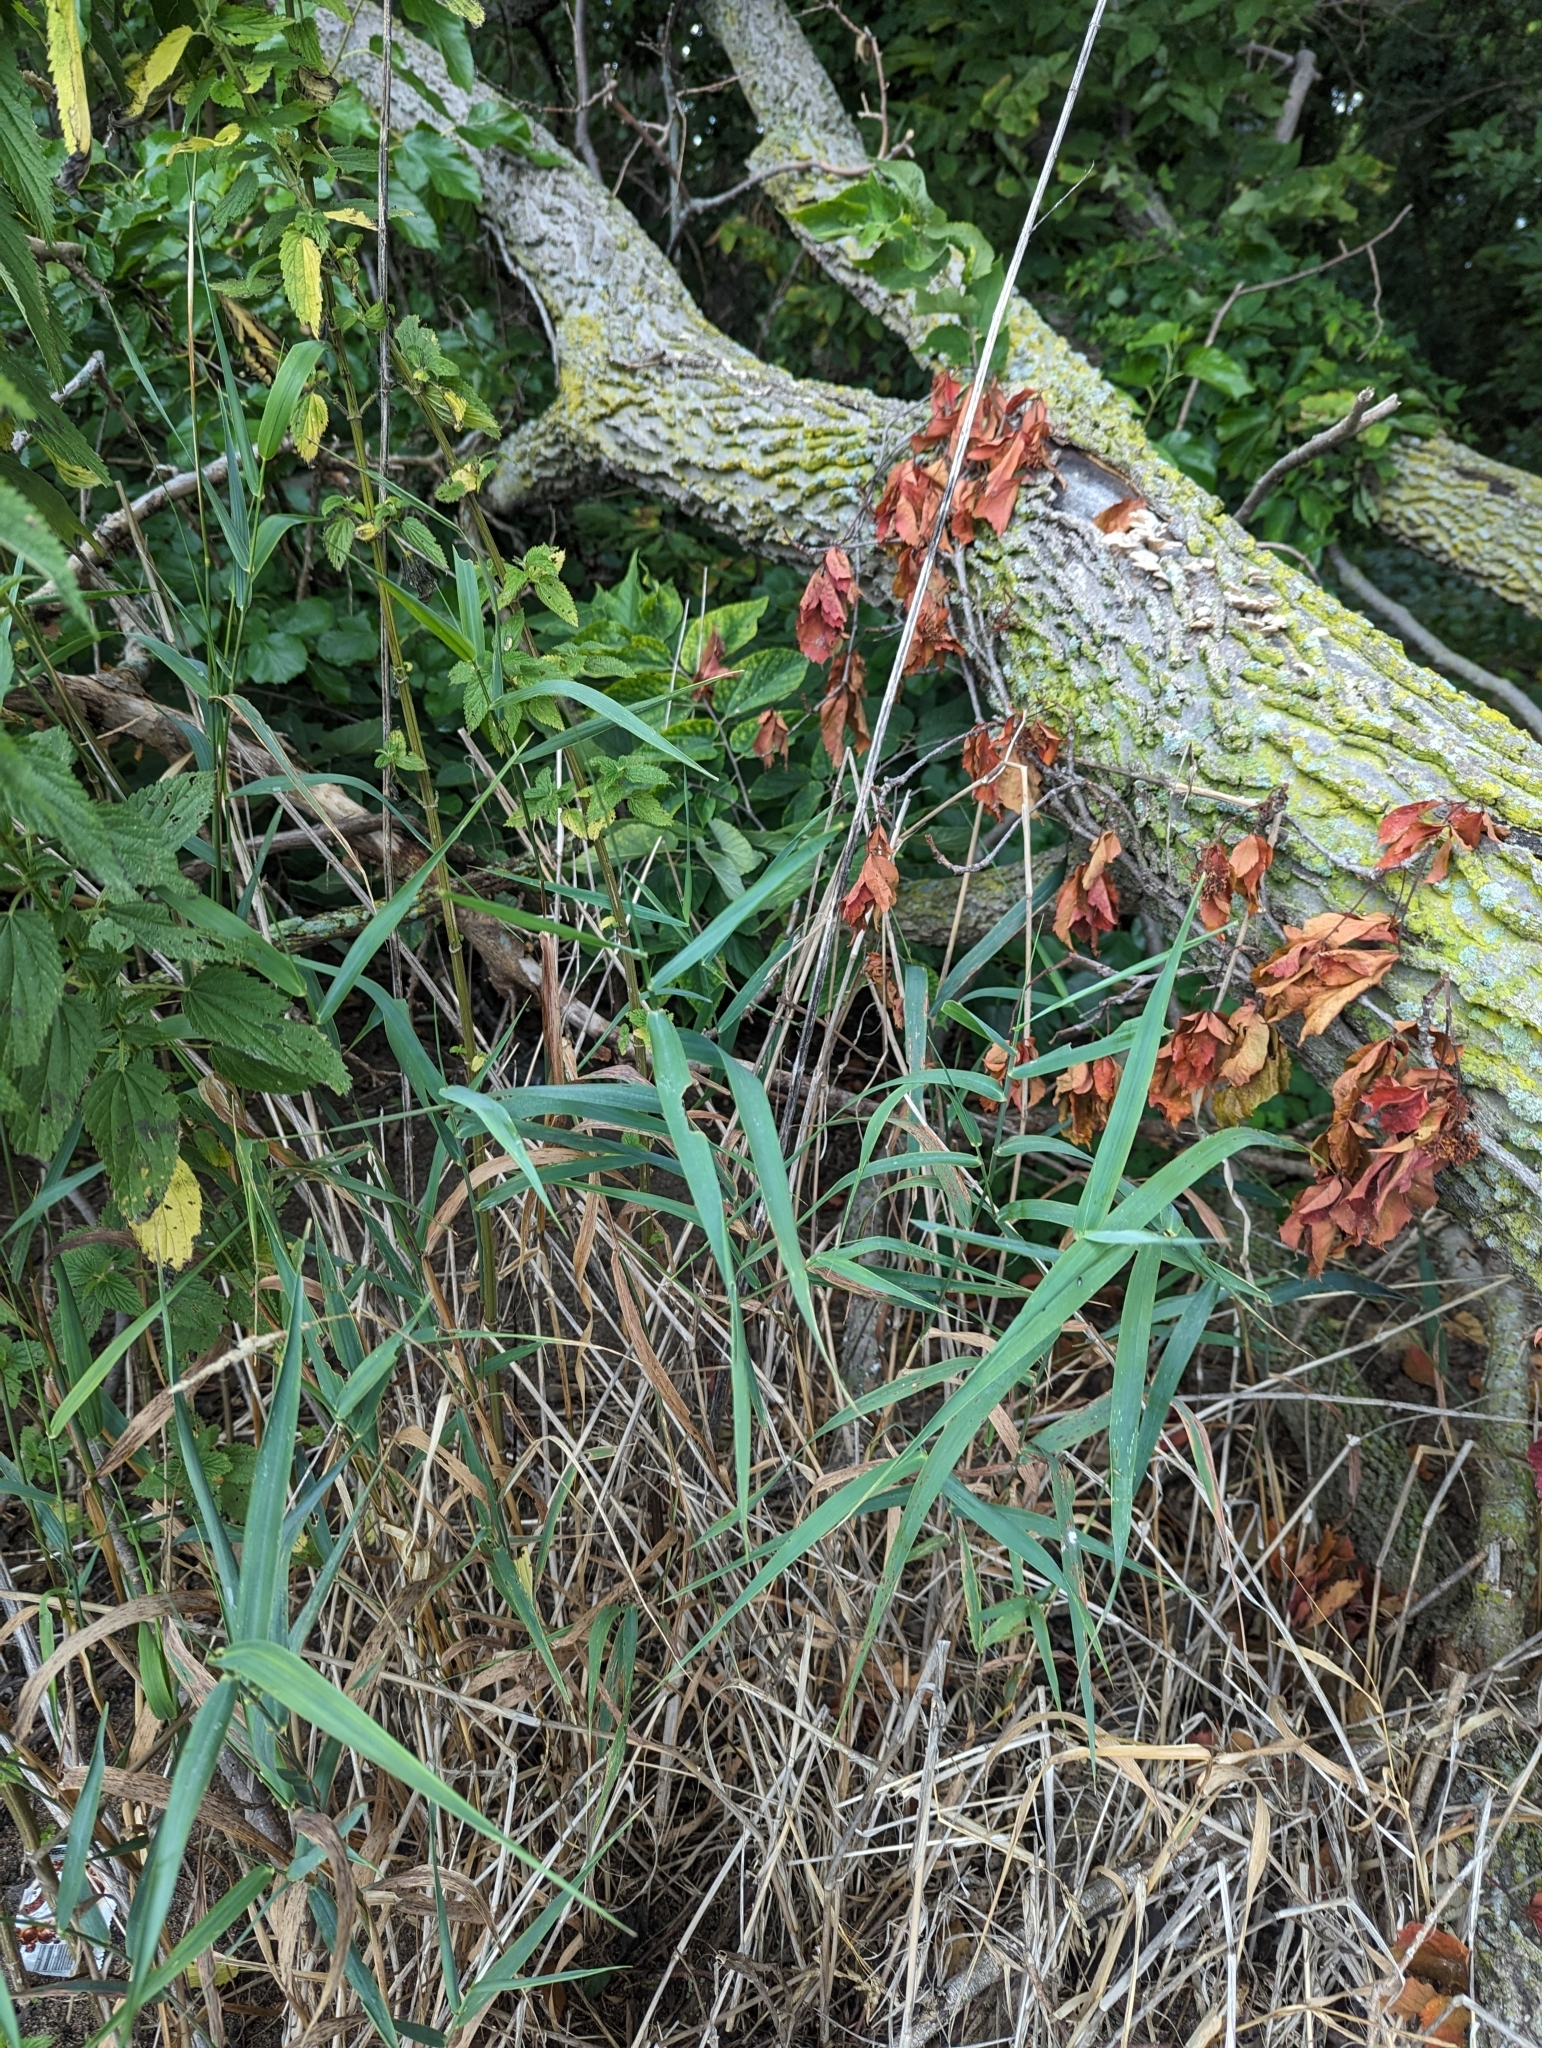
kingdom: Plantae
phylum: Tracheophyta
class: Liliopsida
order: Poales
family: Poaceae
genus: Phragmites
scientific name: Phragmites australis
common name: Common reed
